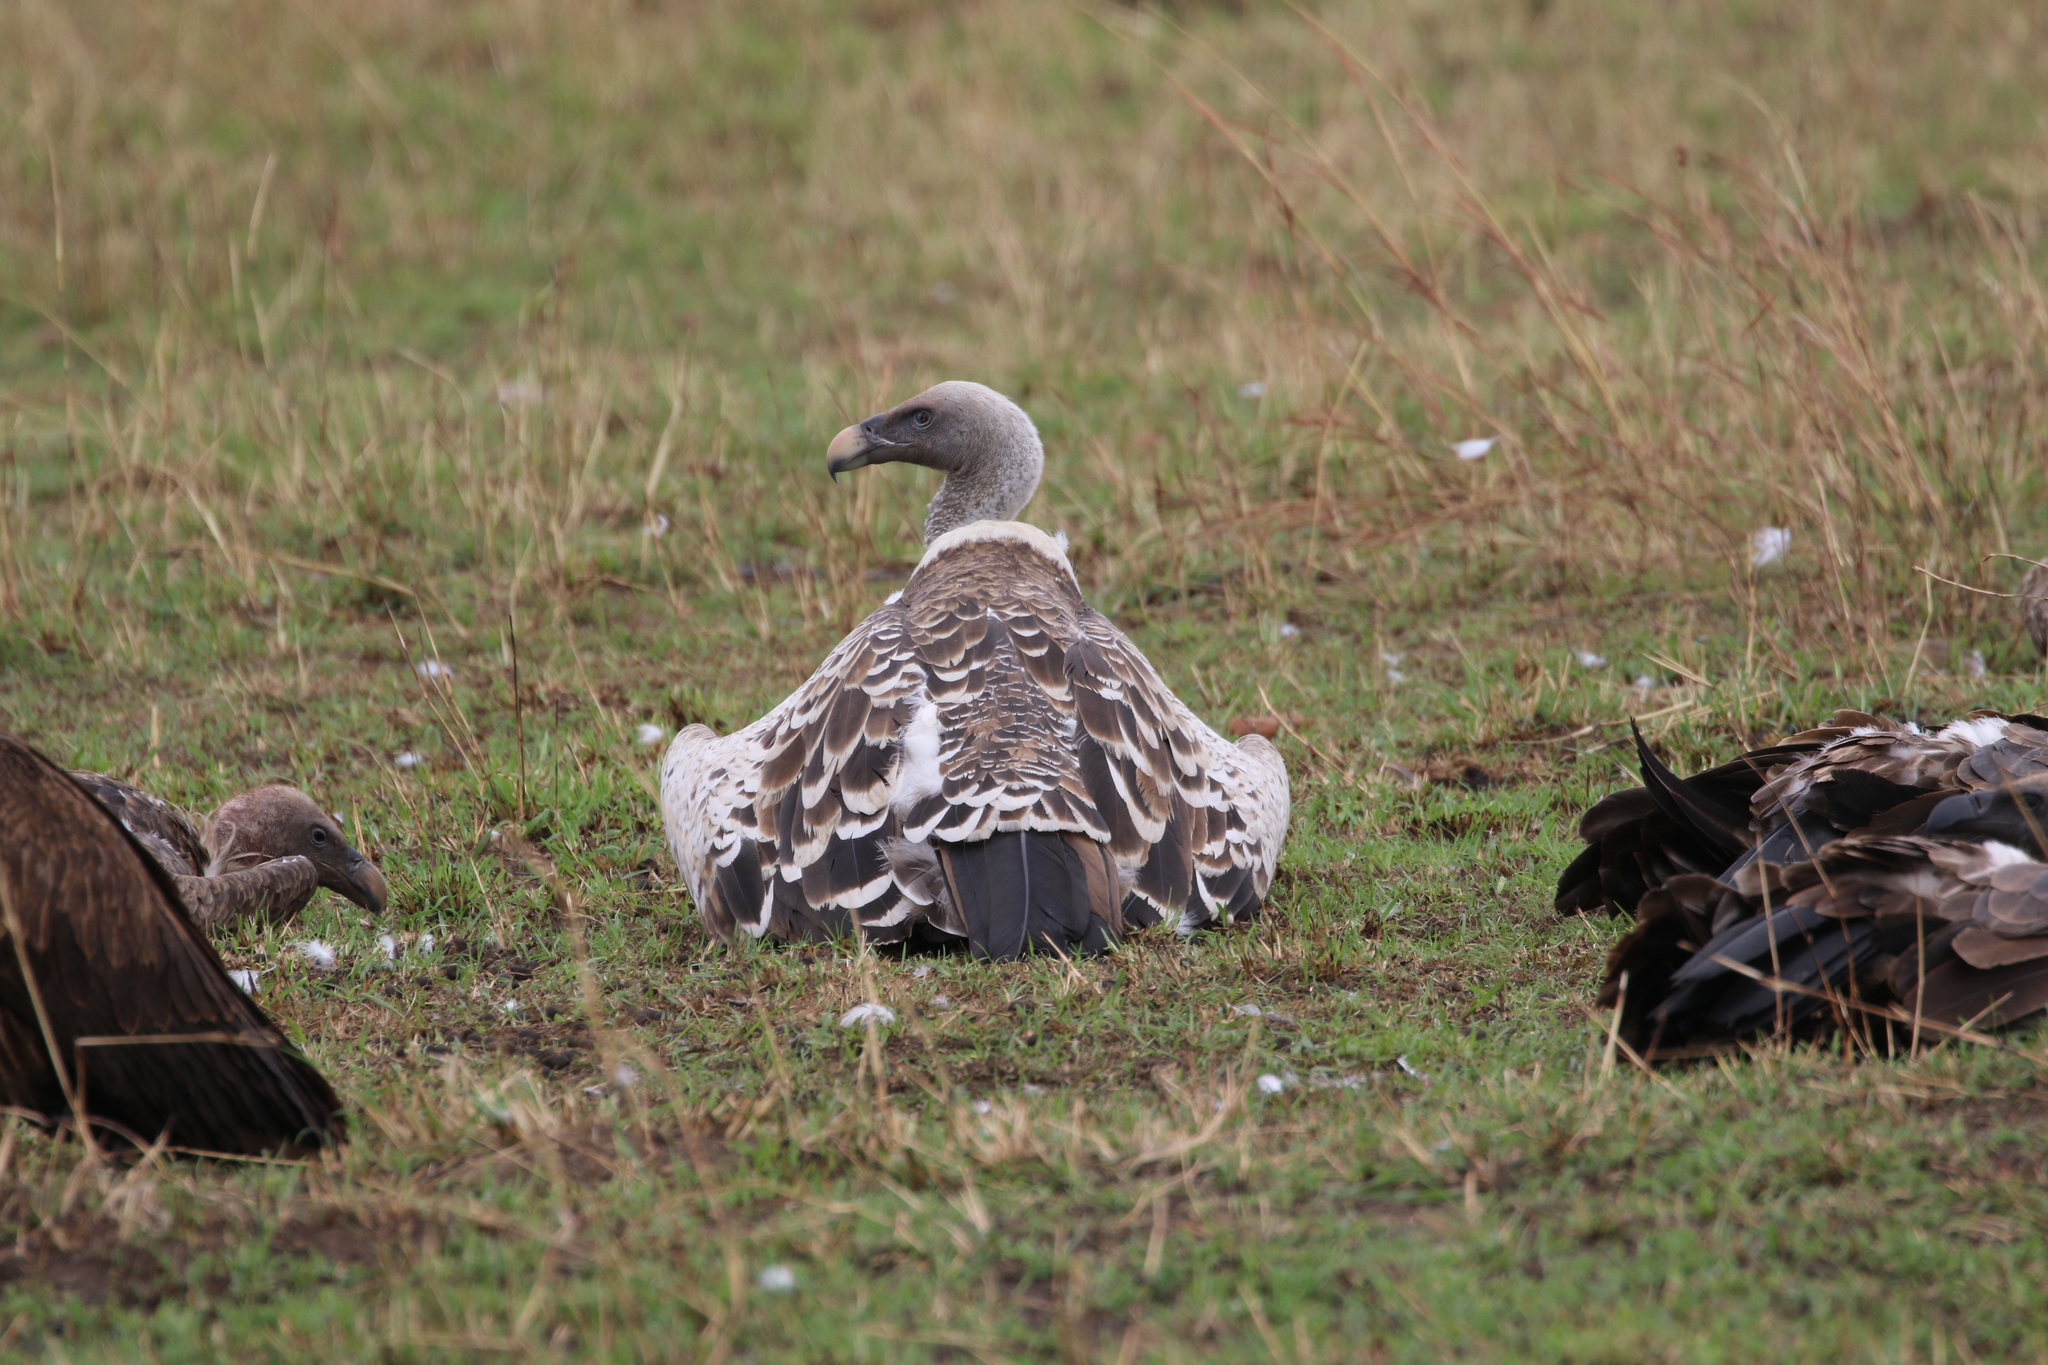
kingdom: Animalia
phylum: Chordata
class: Aves
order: Accipitriformes
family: Accipitridae
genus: Gyps
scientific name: Gyps rueppellii
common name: Rüppell's vulture
